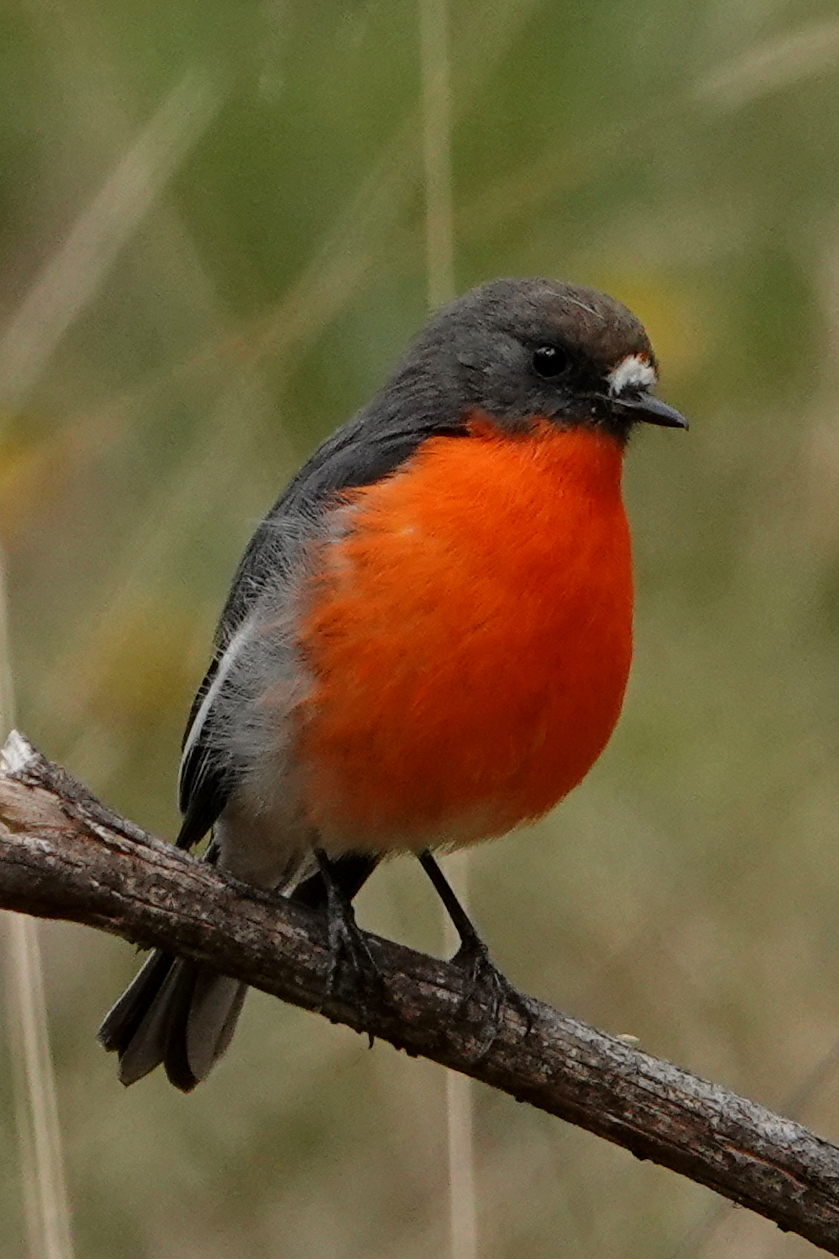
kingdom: Animalia
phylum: Chordata
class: Aves
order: Passeriformes
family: Petroicidae
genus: Petroica
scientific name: Petroica phoenicea
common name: Flame robin
